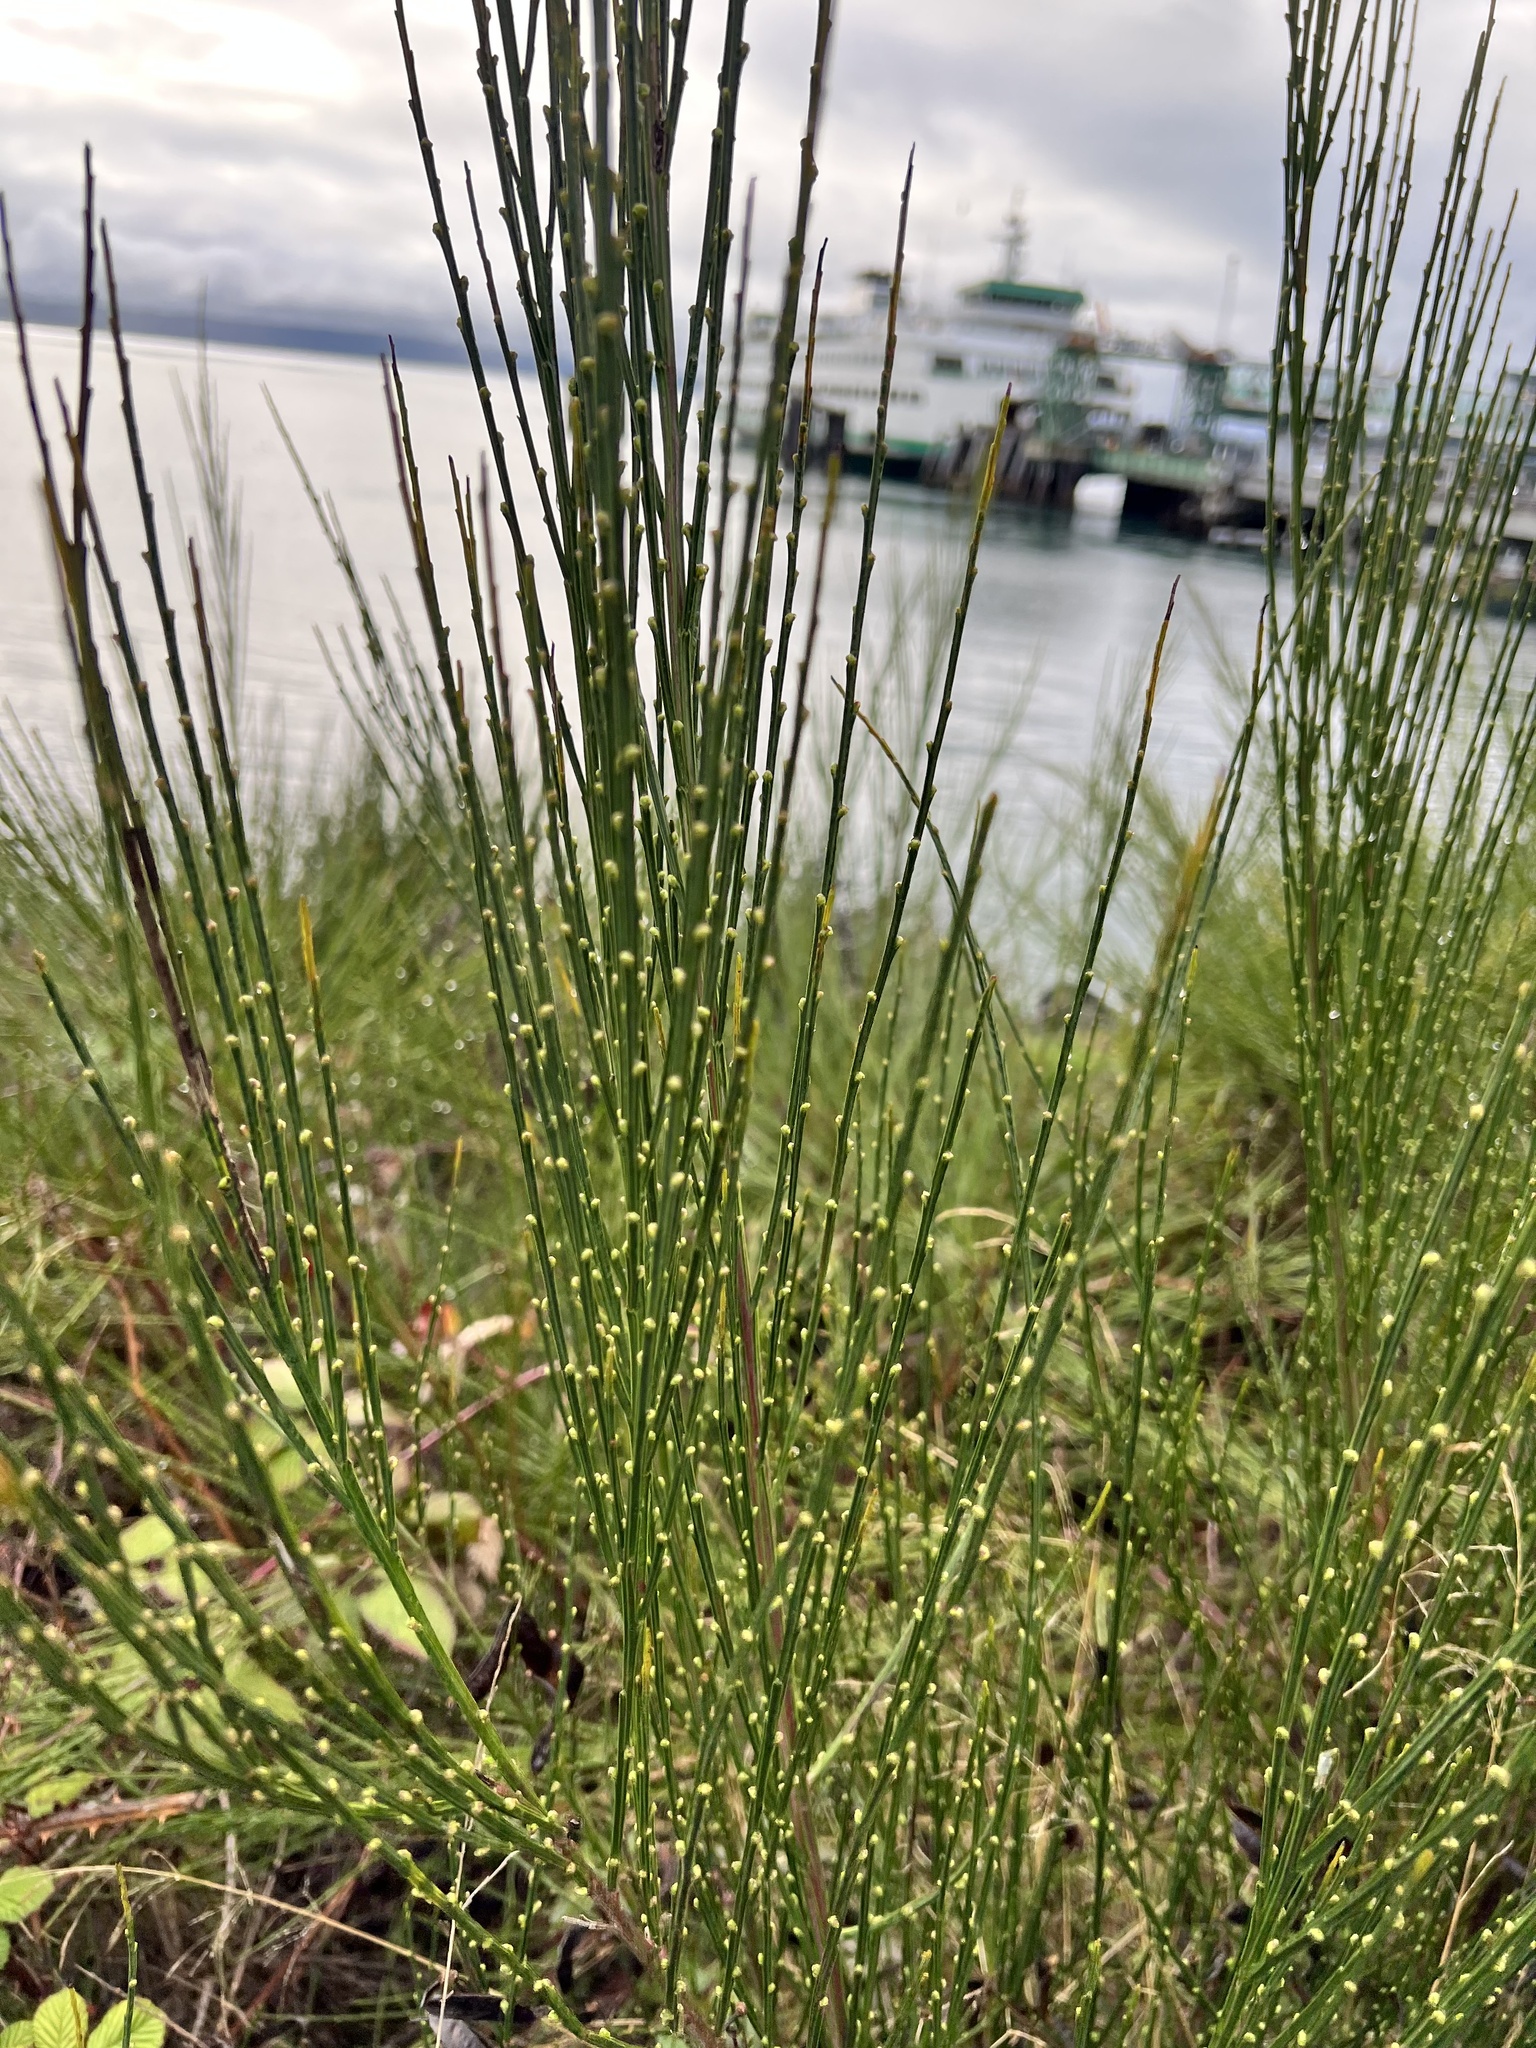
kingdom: Plantae
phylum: Tracheophyta
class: Magnoliopsida
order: Fabales
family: Fabaceae
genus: Cytisus
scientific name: Cytisus scoparius
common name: Scotch broom
